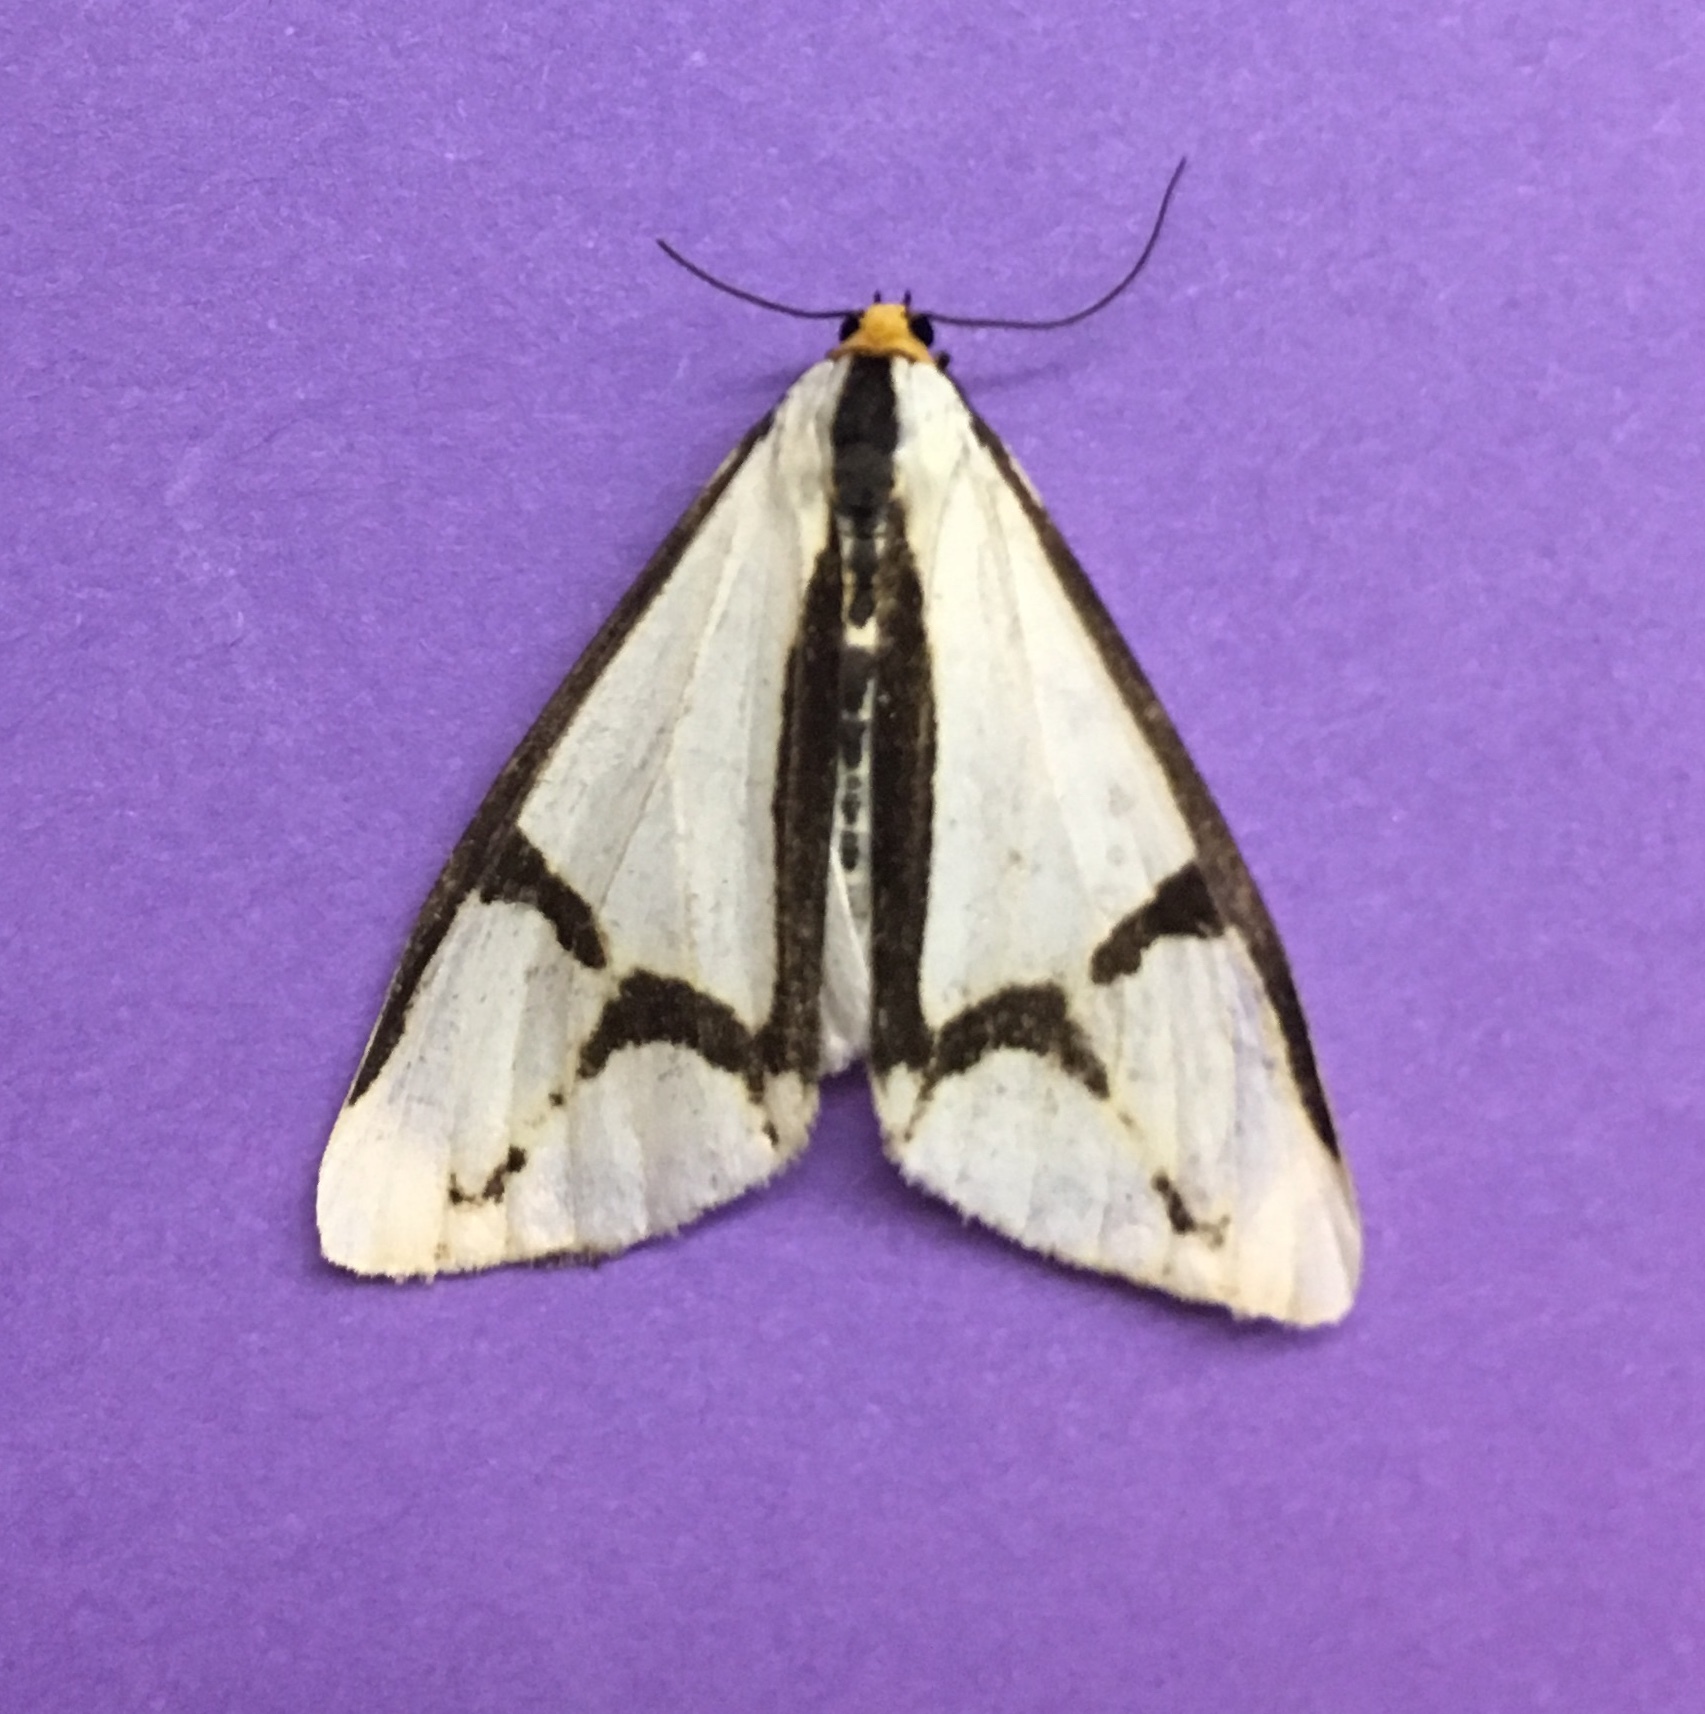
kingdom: Animalia
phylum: Arthropoda
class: Insecta
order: Lepidoptera
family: Erebidae
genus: Haploa
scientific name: Haploa contigua
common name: Neighbor moth
